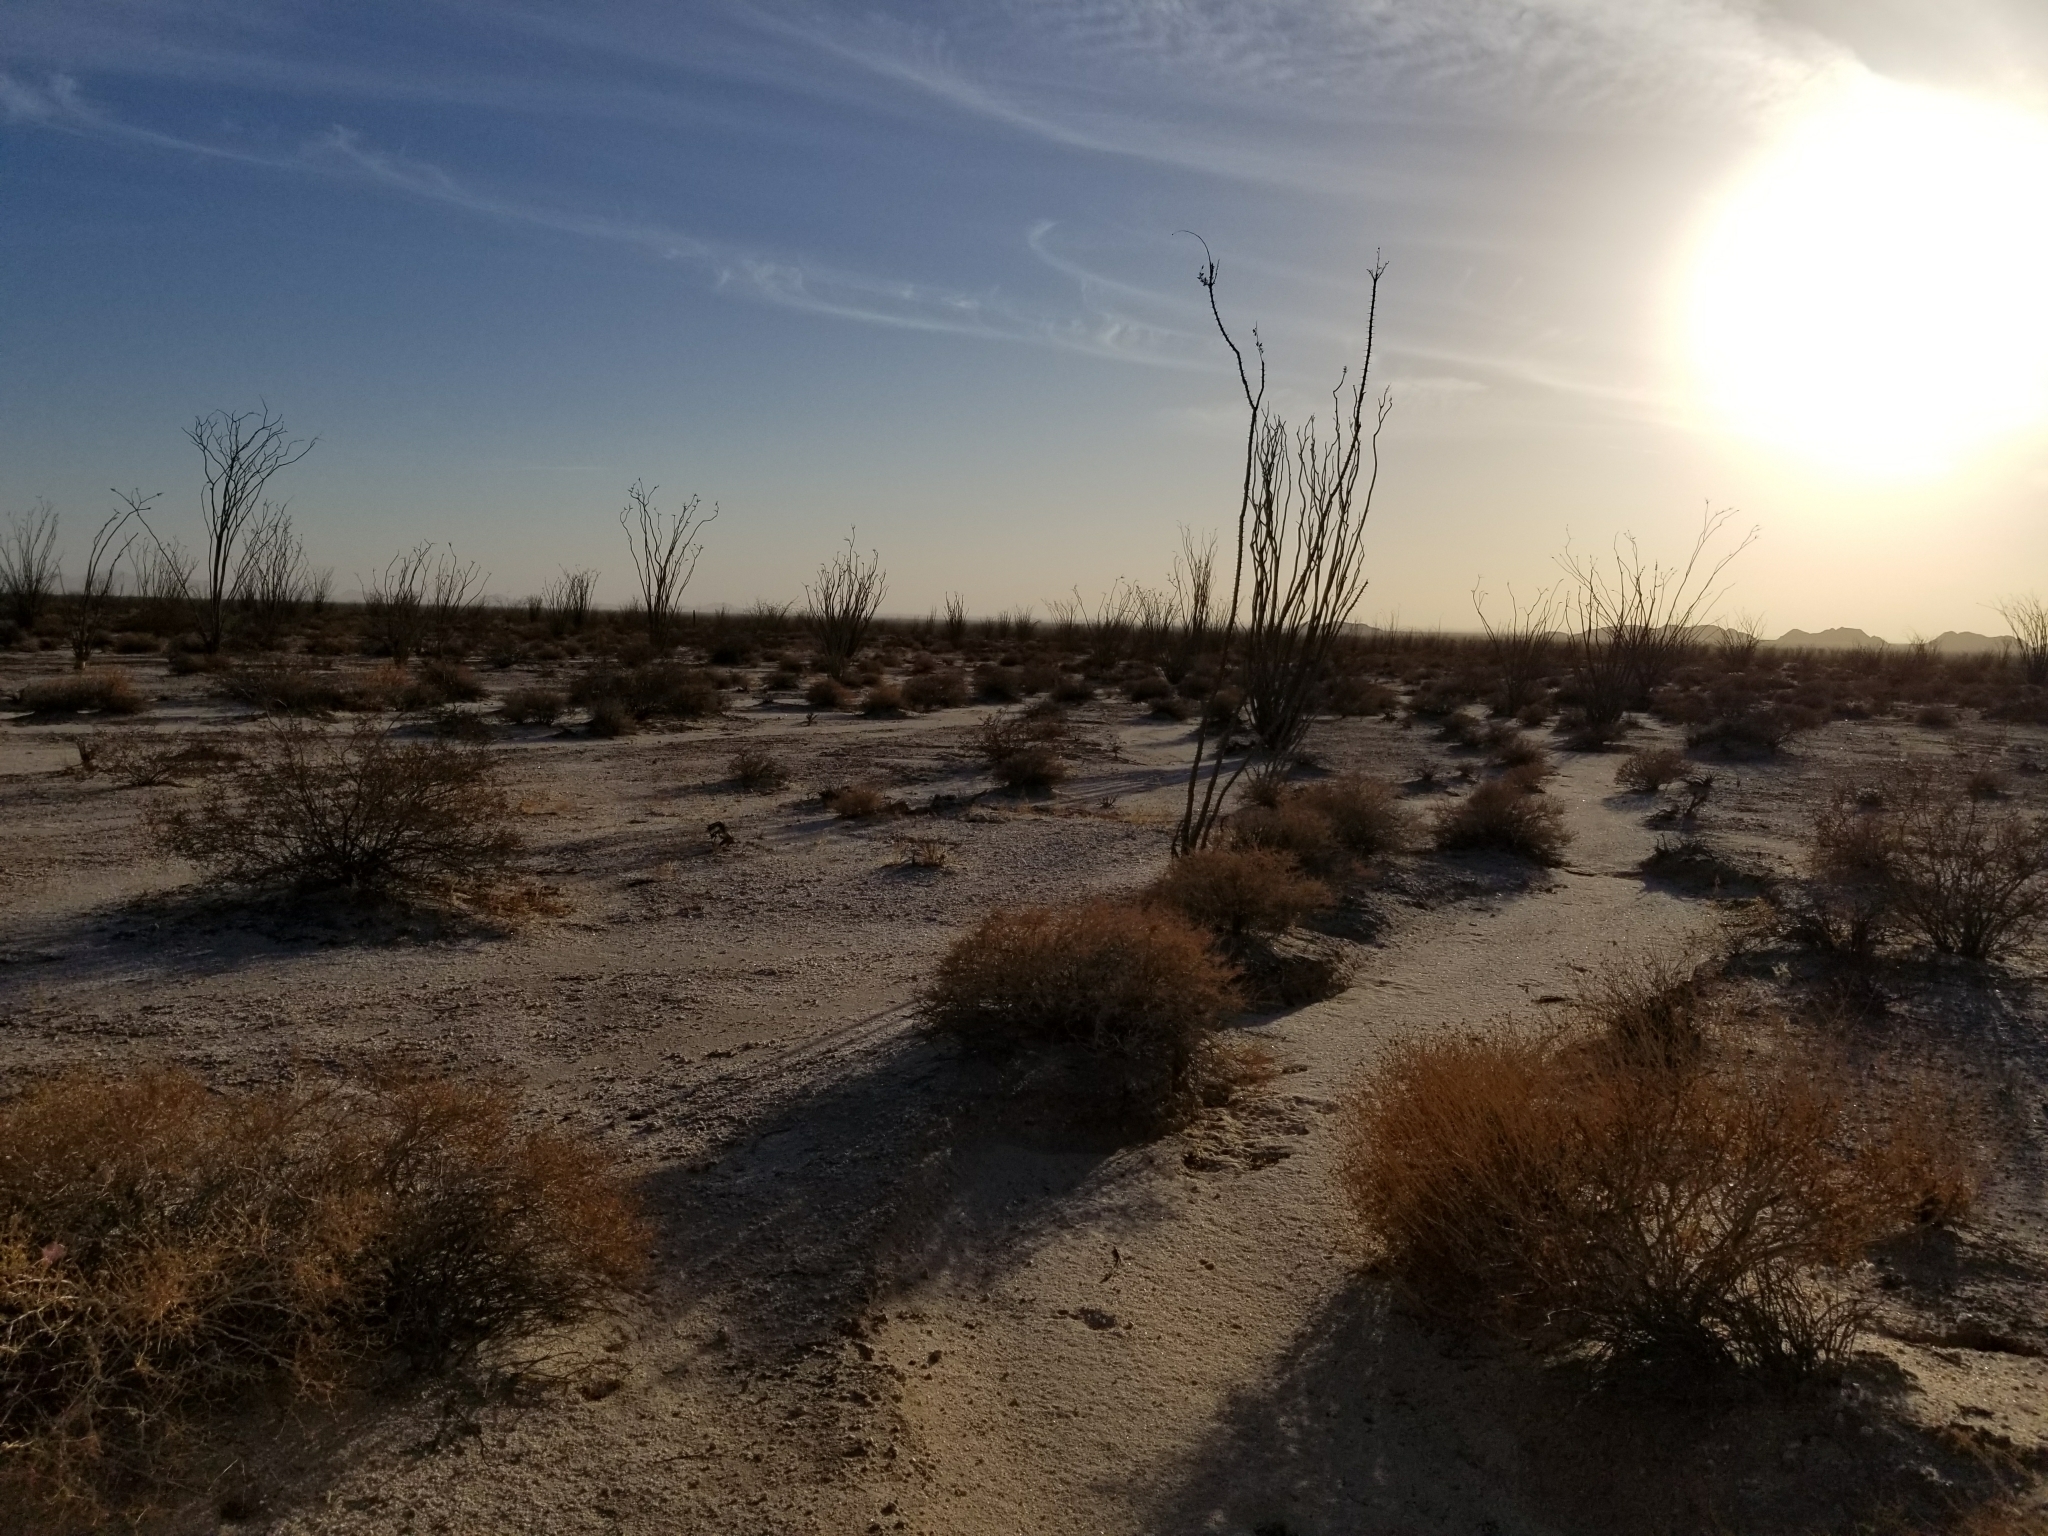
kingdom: Plantae
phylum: Tracheophyta
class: Magnoliopsida
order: Ericales
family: Fouquieriaceae
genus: Fouquieria
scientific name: Fouquieria splendens
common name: Vine-cactus
